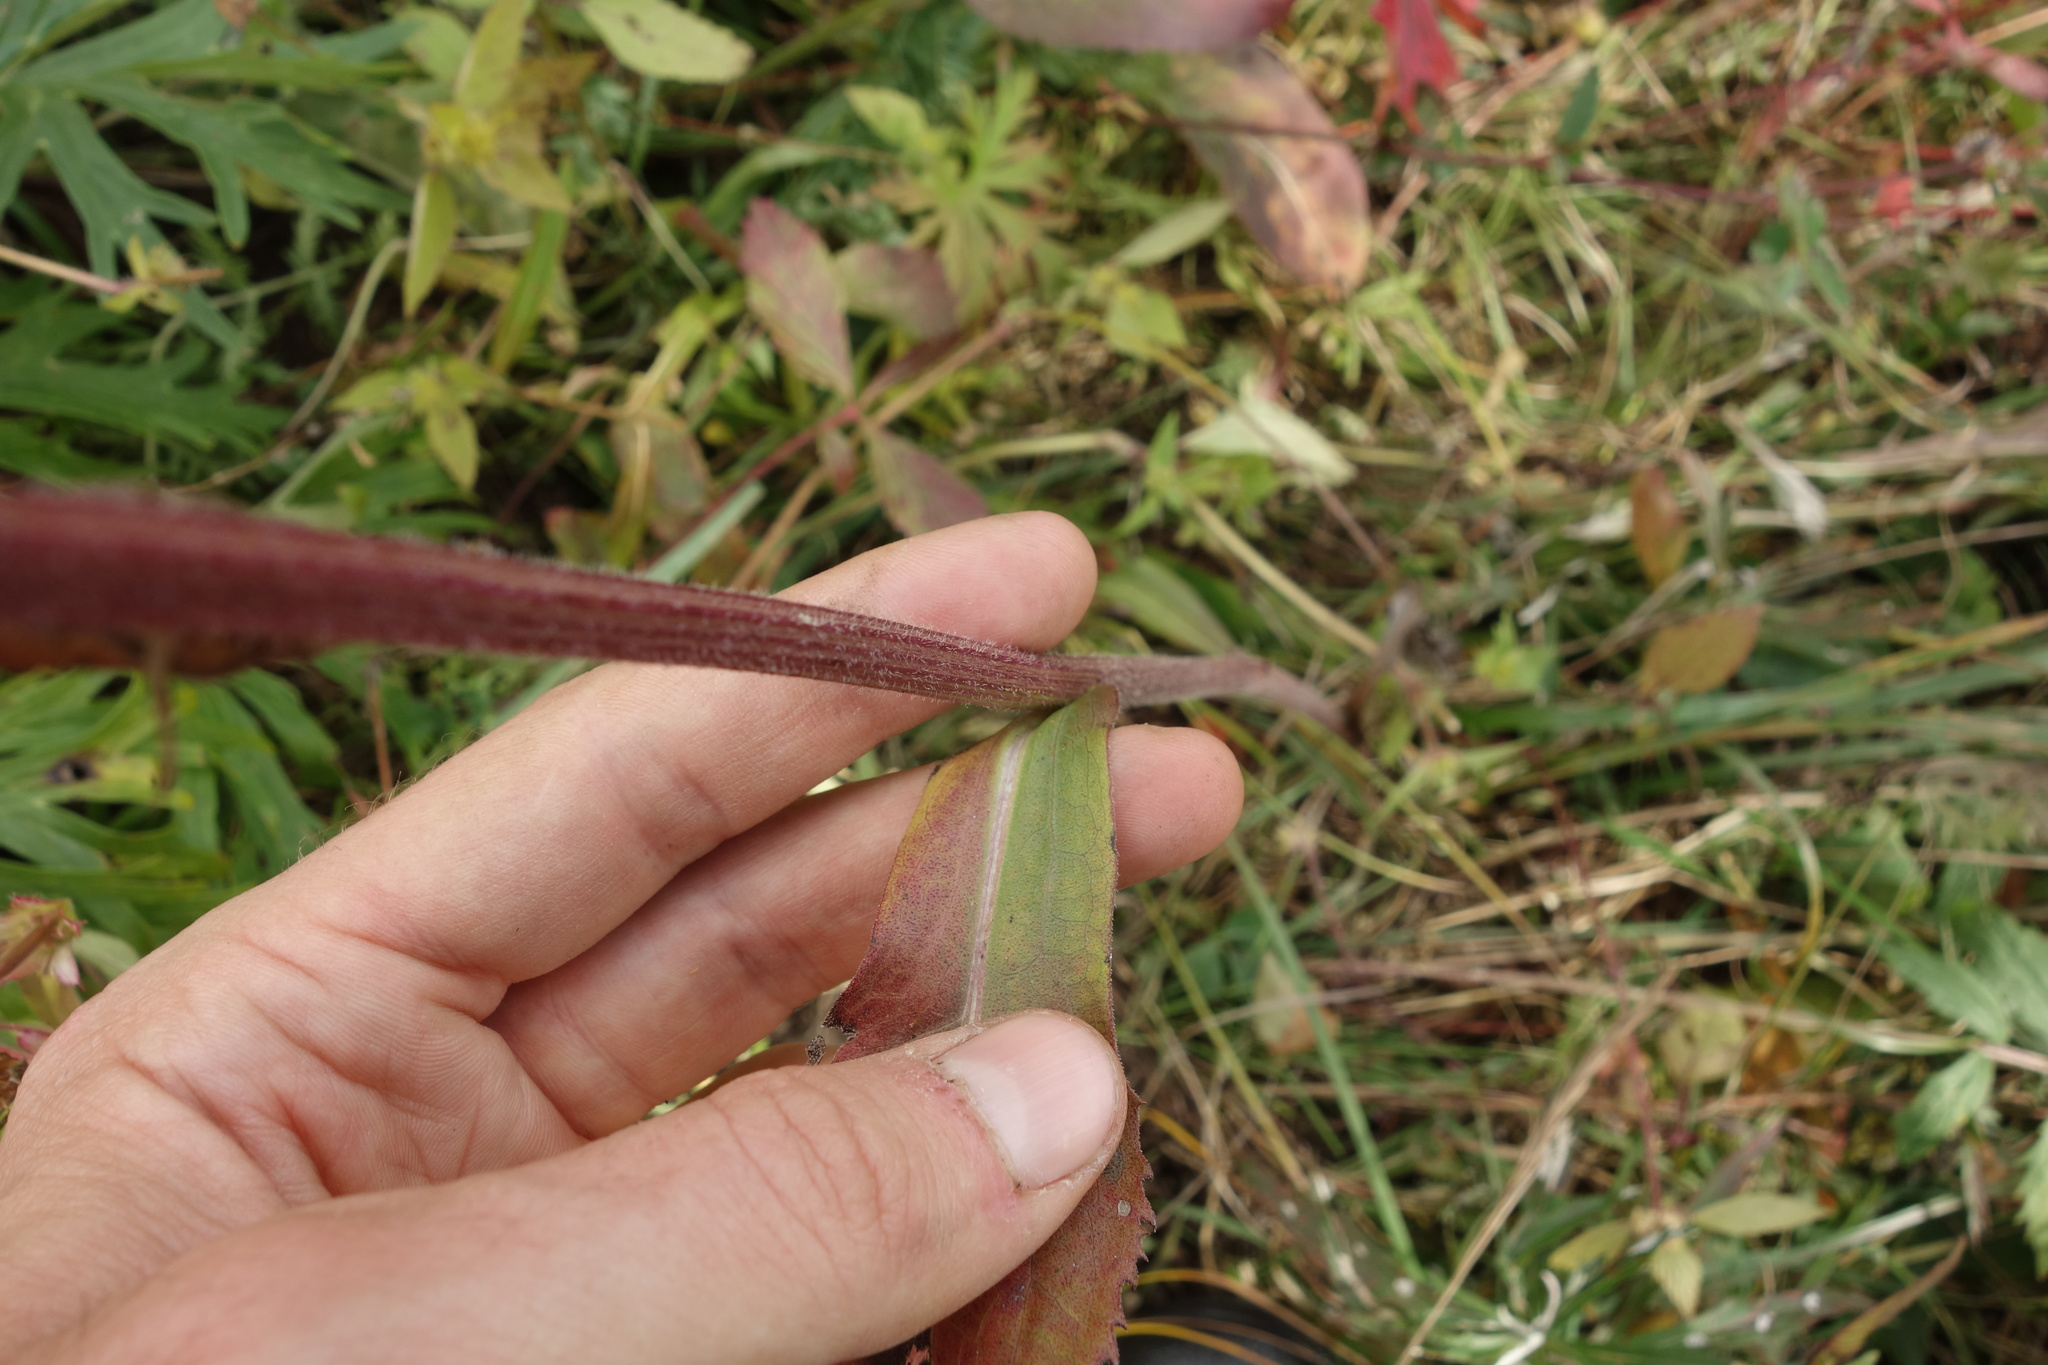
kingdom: Plantae
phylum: Tracheophyta
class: Magnoliopsida
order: Asterales
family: Asteraceae
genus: Aster
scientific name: Aster tataricus
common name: Tatarian aster
